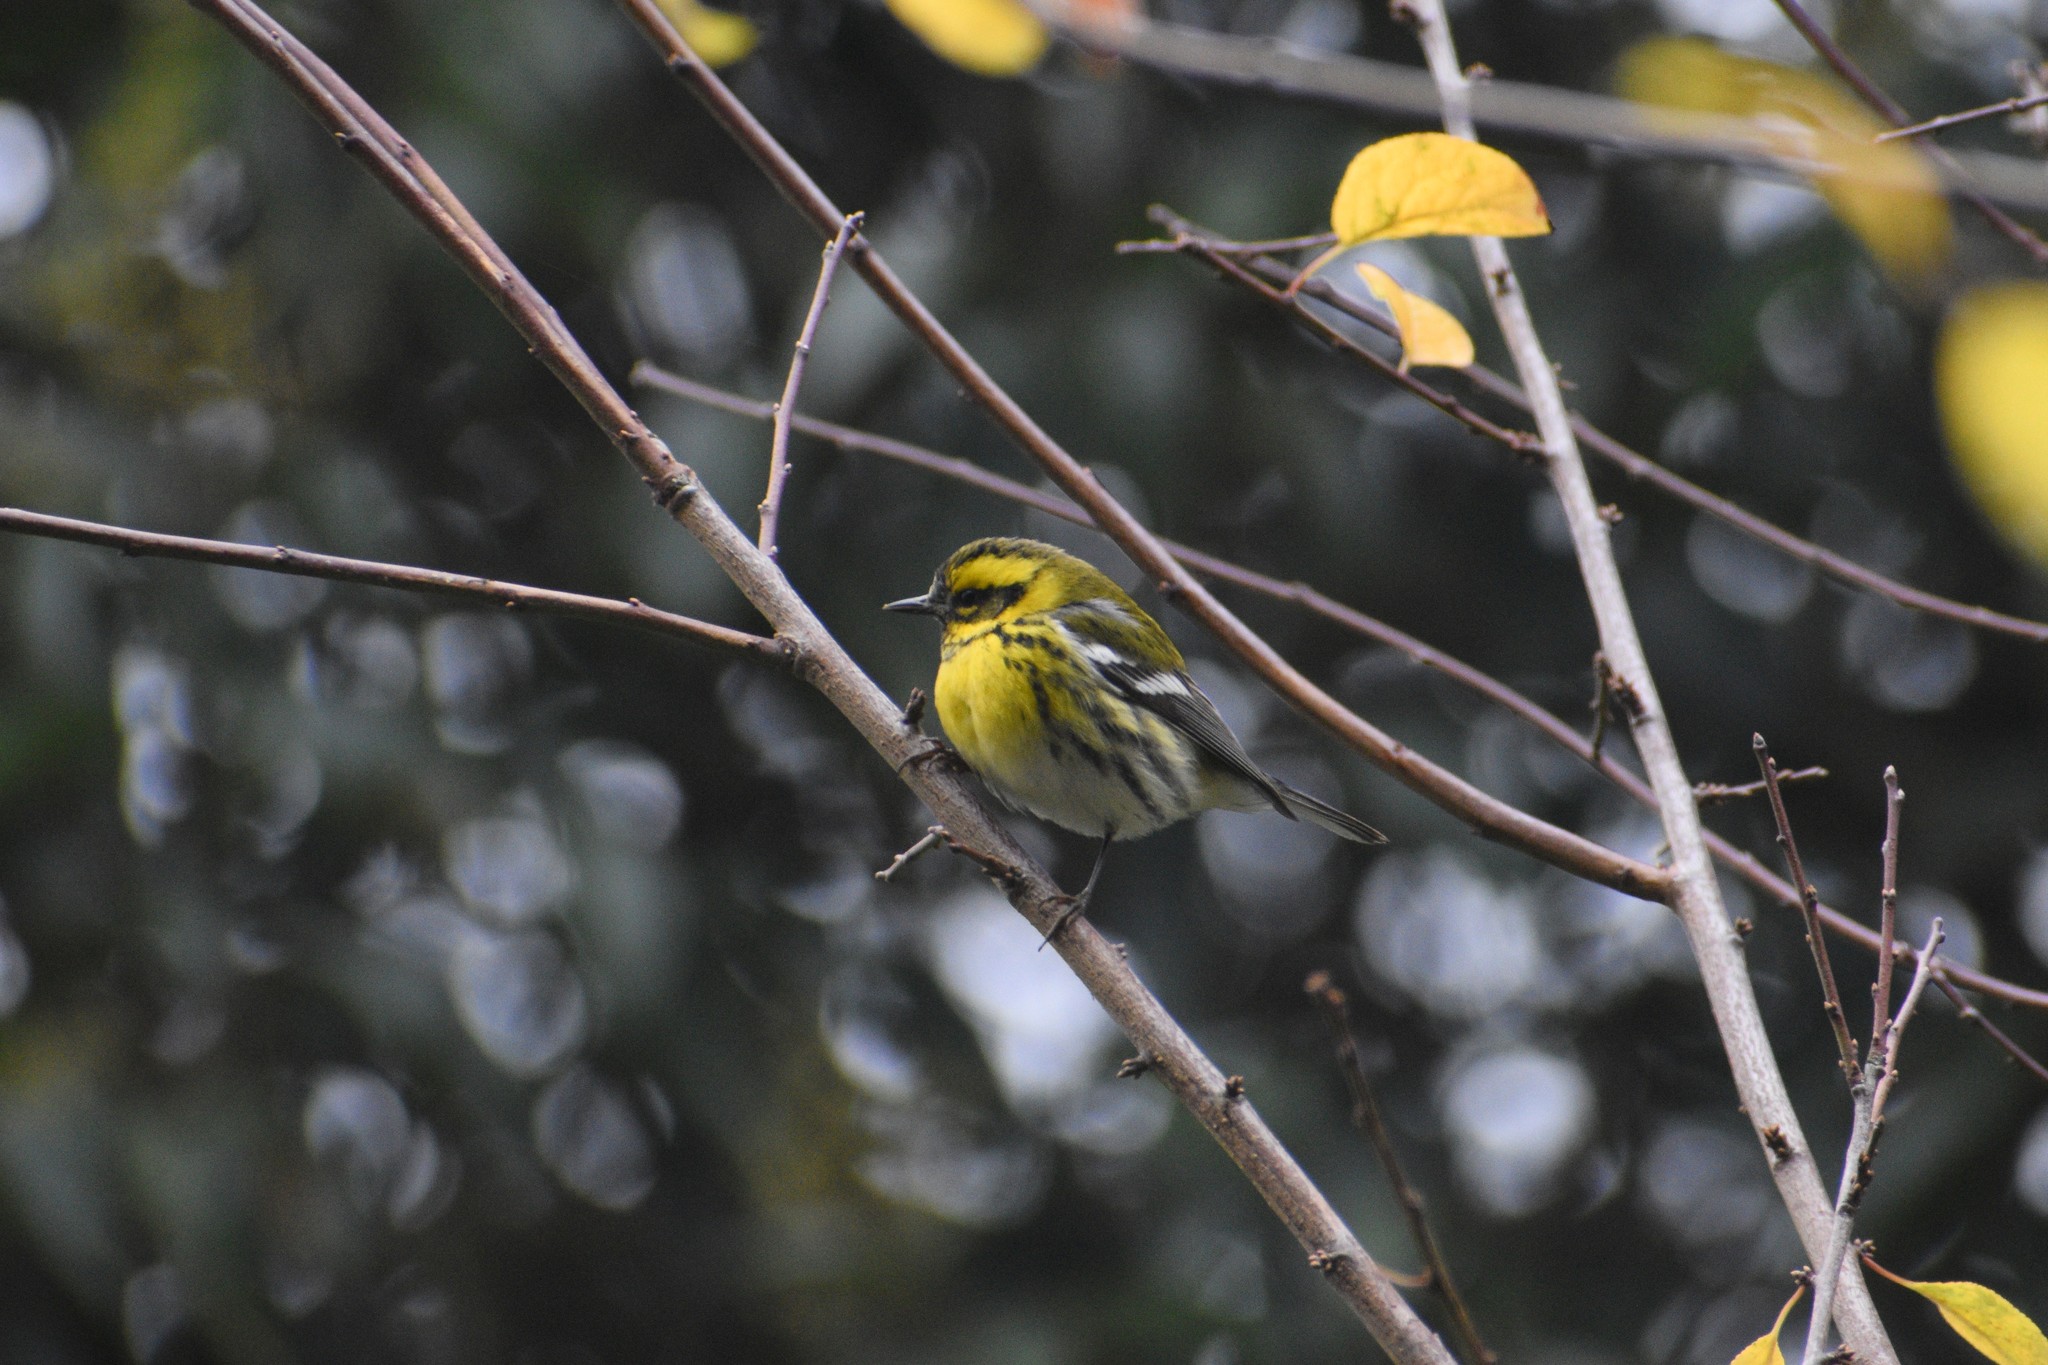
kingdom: Animalia
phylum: Chordata
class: Aves
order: Passeriformes
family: Parulidae
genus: Setophaga
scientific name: Setophaga townsendi
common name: Townsend's warbler
